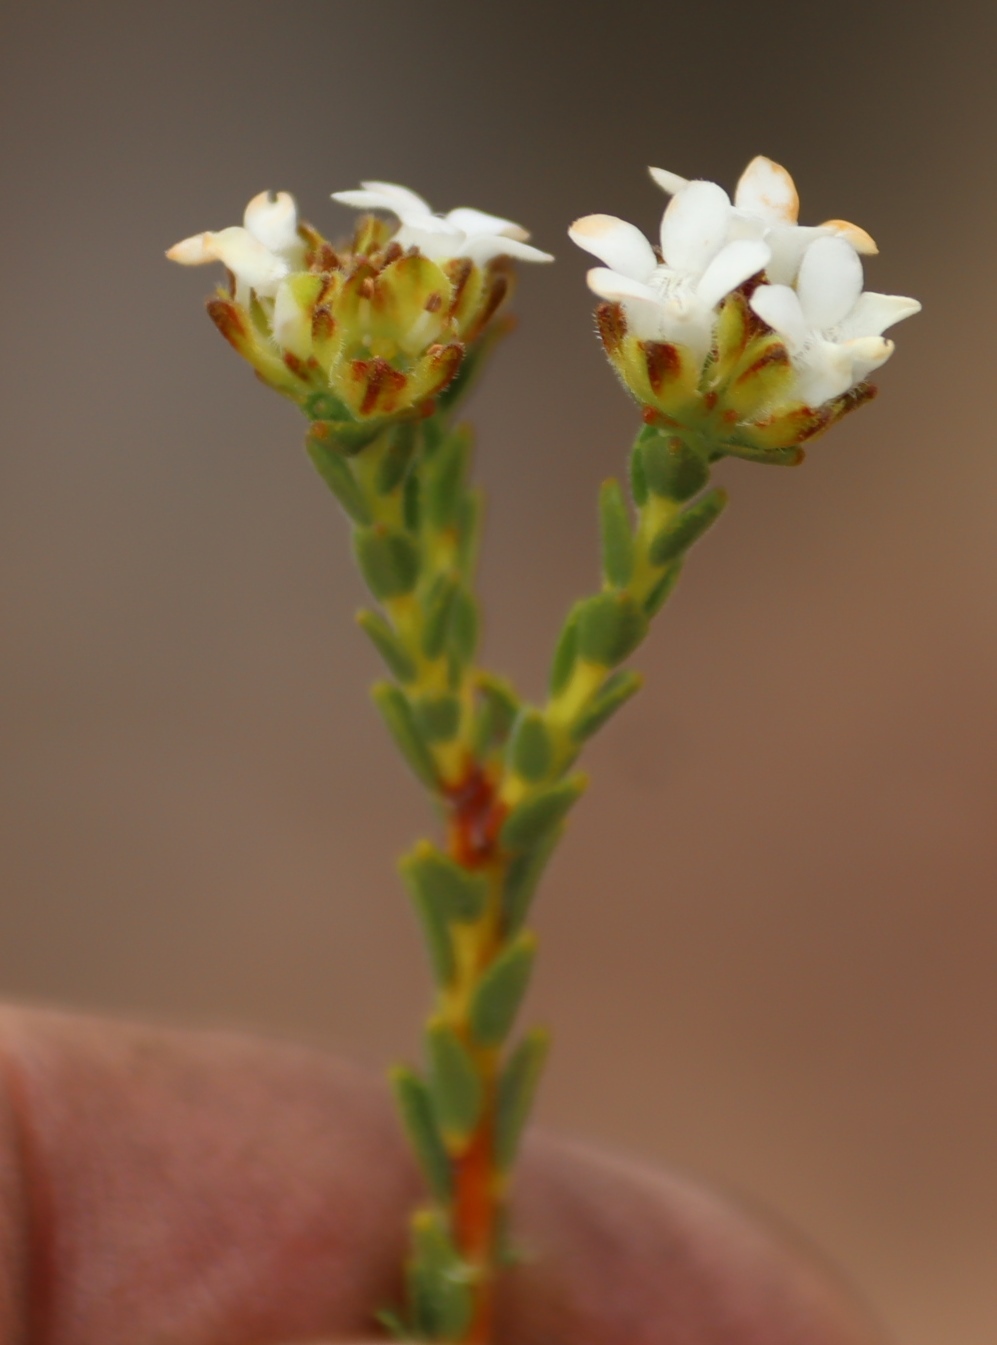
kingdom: Plantae
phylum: Tracheophyta
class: Magnoliopsida
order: Sapindales
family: Rutaceae
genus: Euchaetis
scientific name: Euchaetis vallis-simiae
